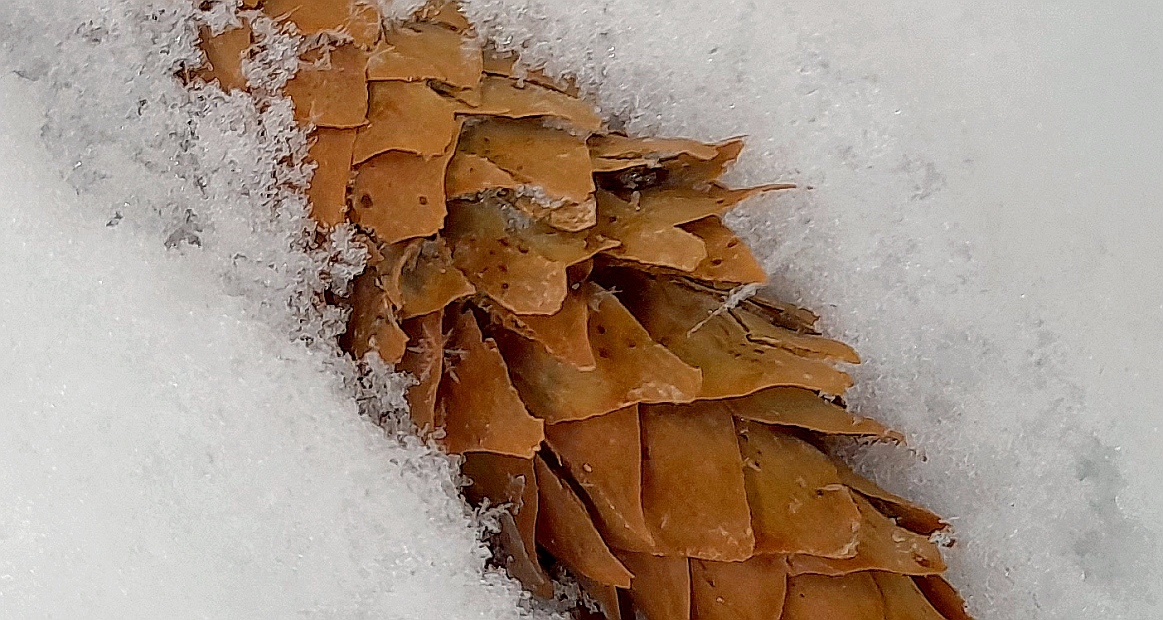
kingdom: Animalia
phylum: Chordata
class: Aves
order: Passeriformes
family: Fringillidae
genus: Loxia
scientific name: Loxia curvirostra
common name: Red crossbill
